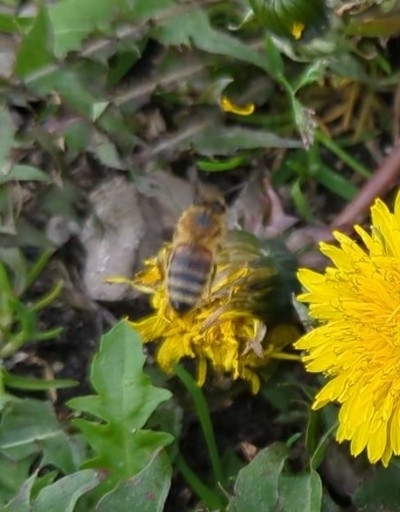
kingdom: Animalia
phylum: Arthropoda
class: Insecta
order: Hymenoptera
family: Apidae
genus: Apis
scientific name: Apis mellifera
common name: Honey bee
